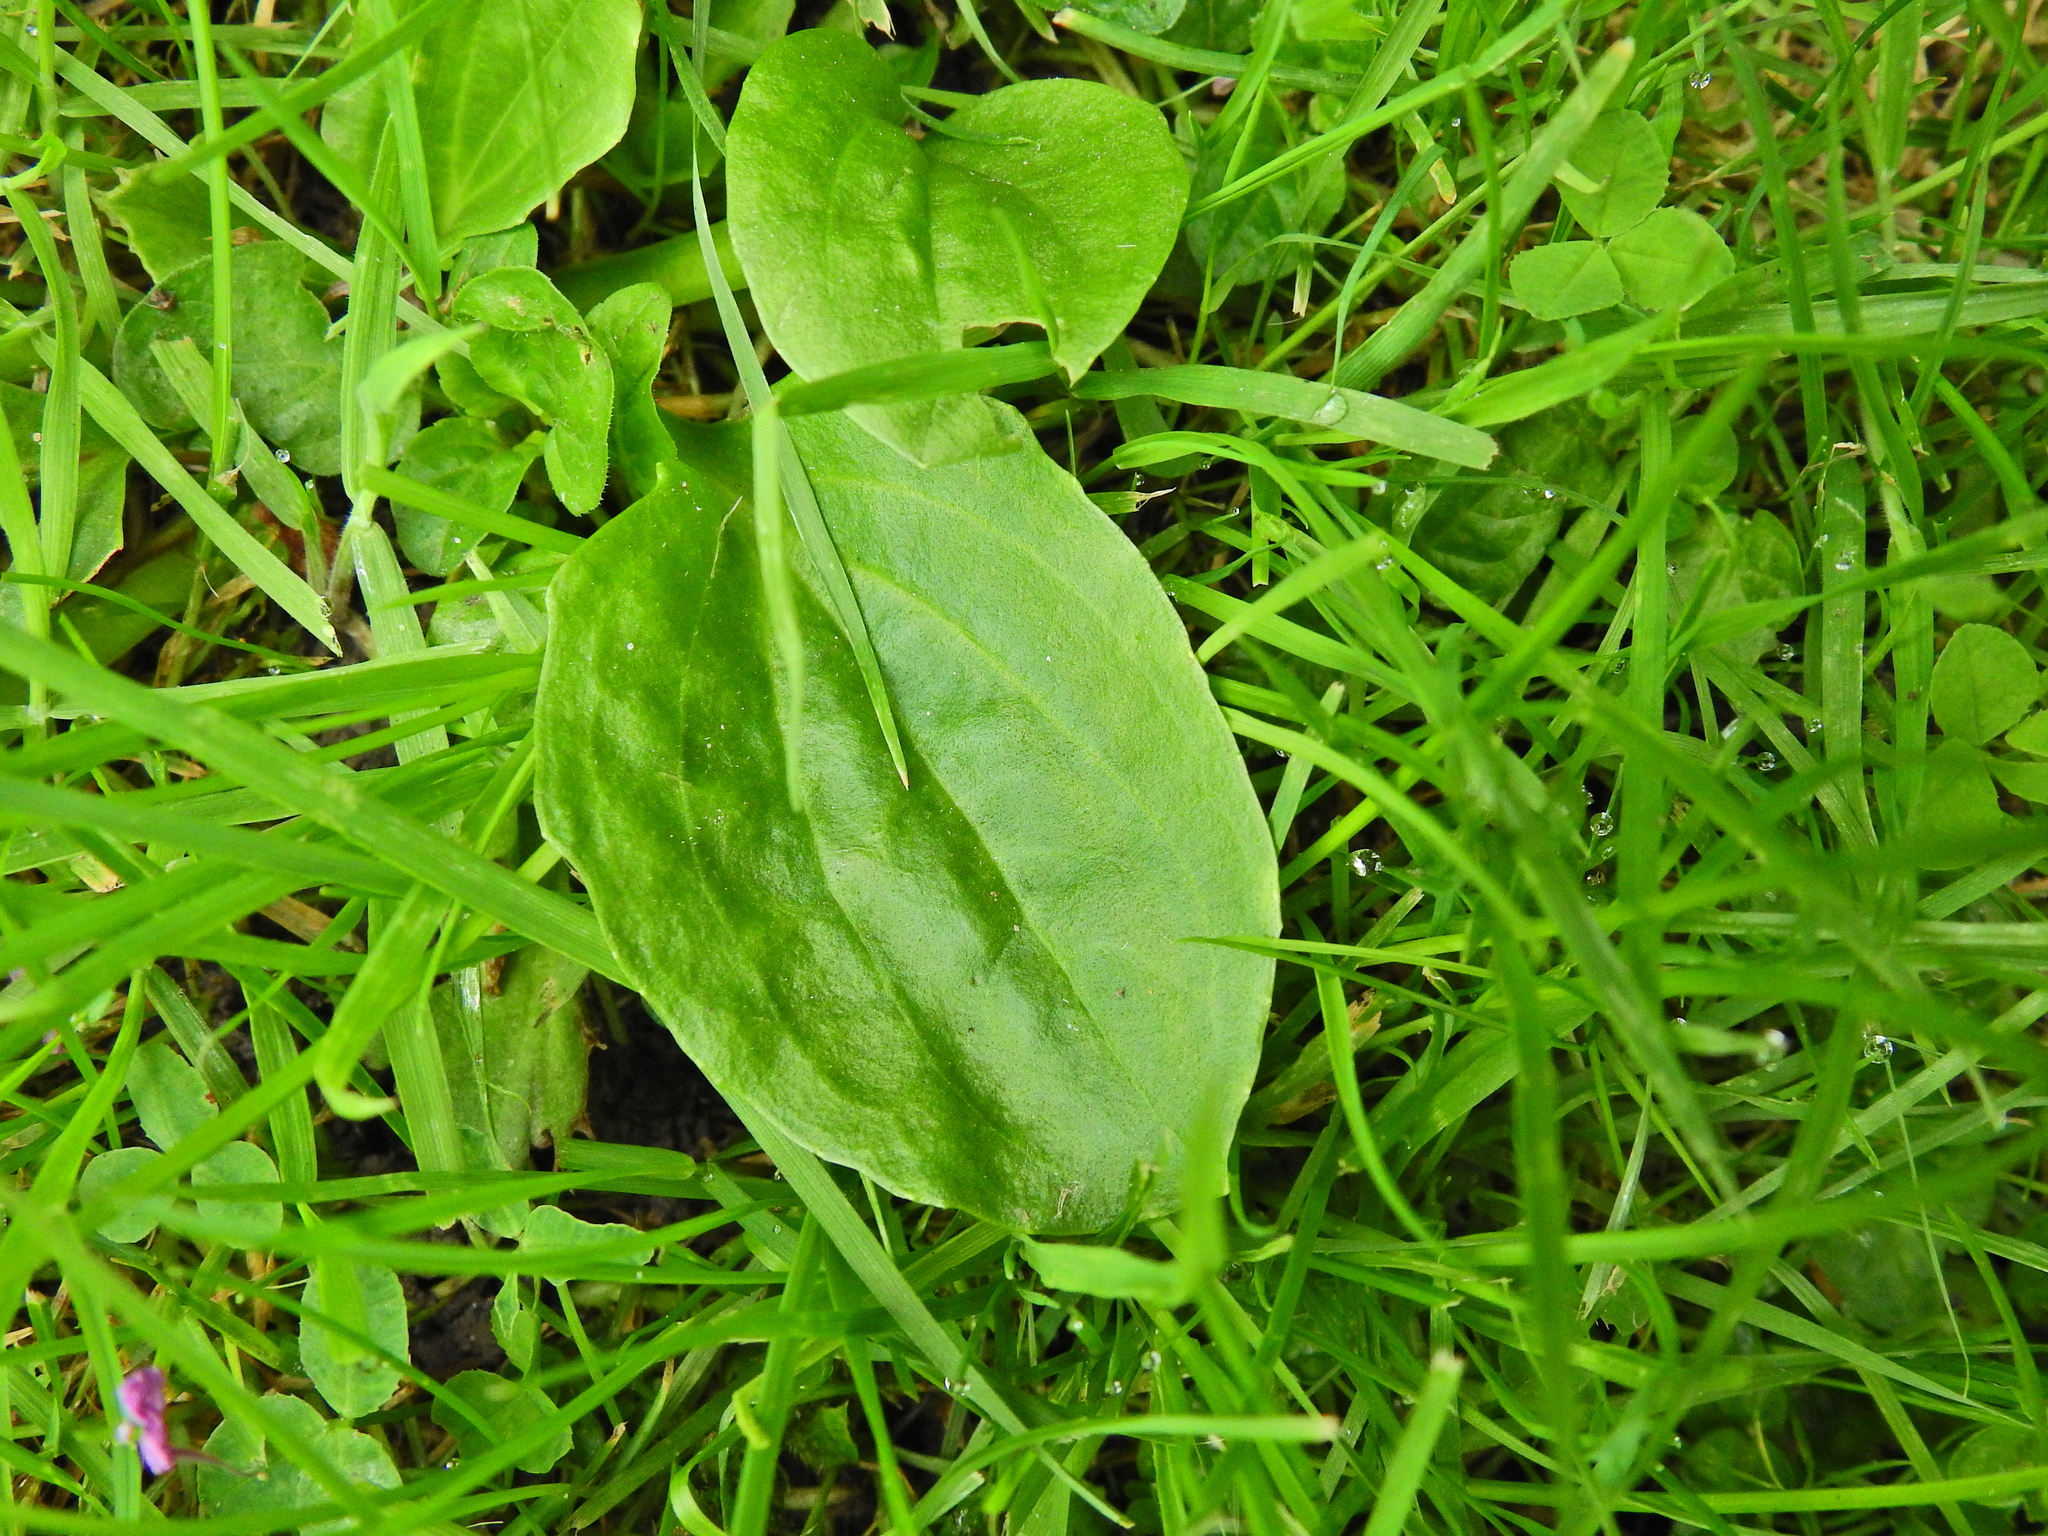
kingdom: Plantae
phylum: Tracheophyta
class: Magnoliopsida
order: Lamiales
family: Plantaginaceae
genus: Plantago
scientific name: Plantago major
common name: Common plantain
